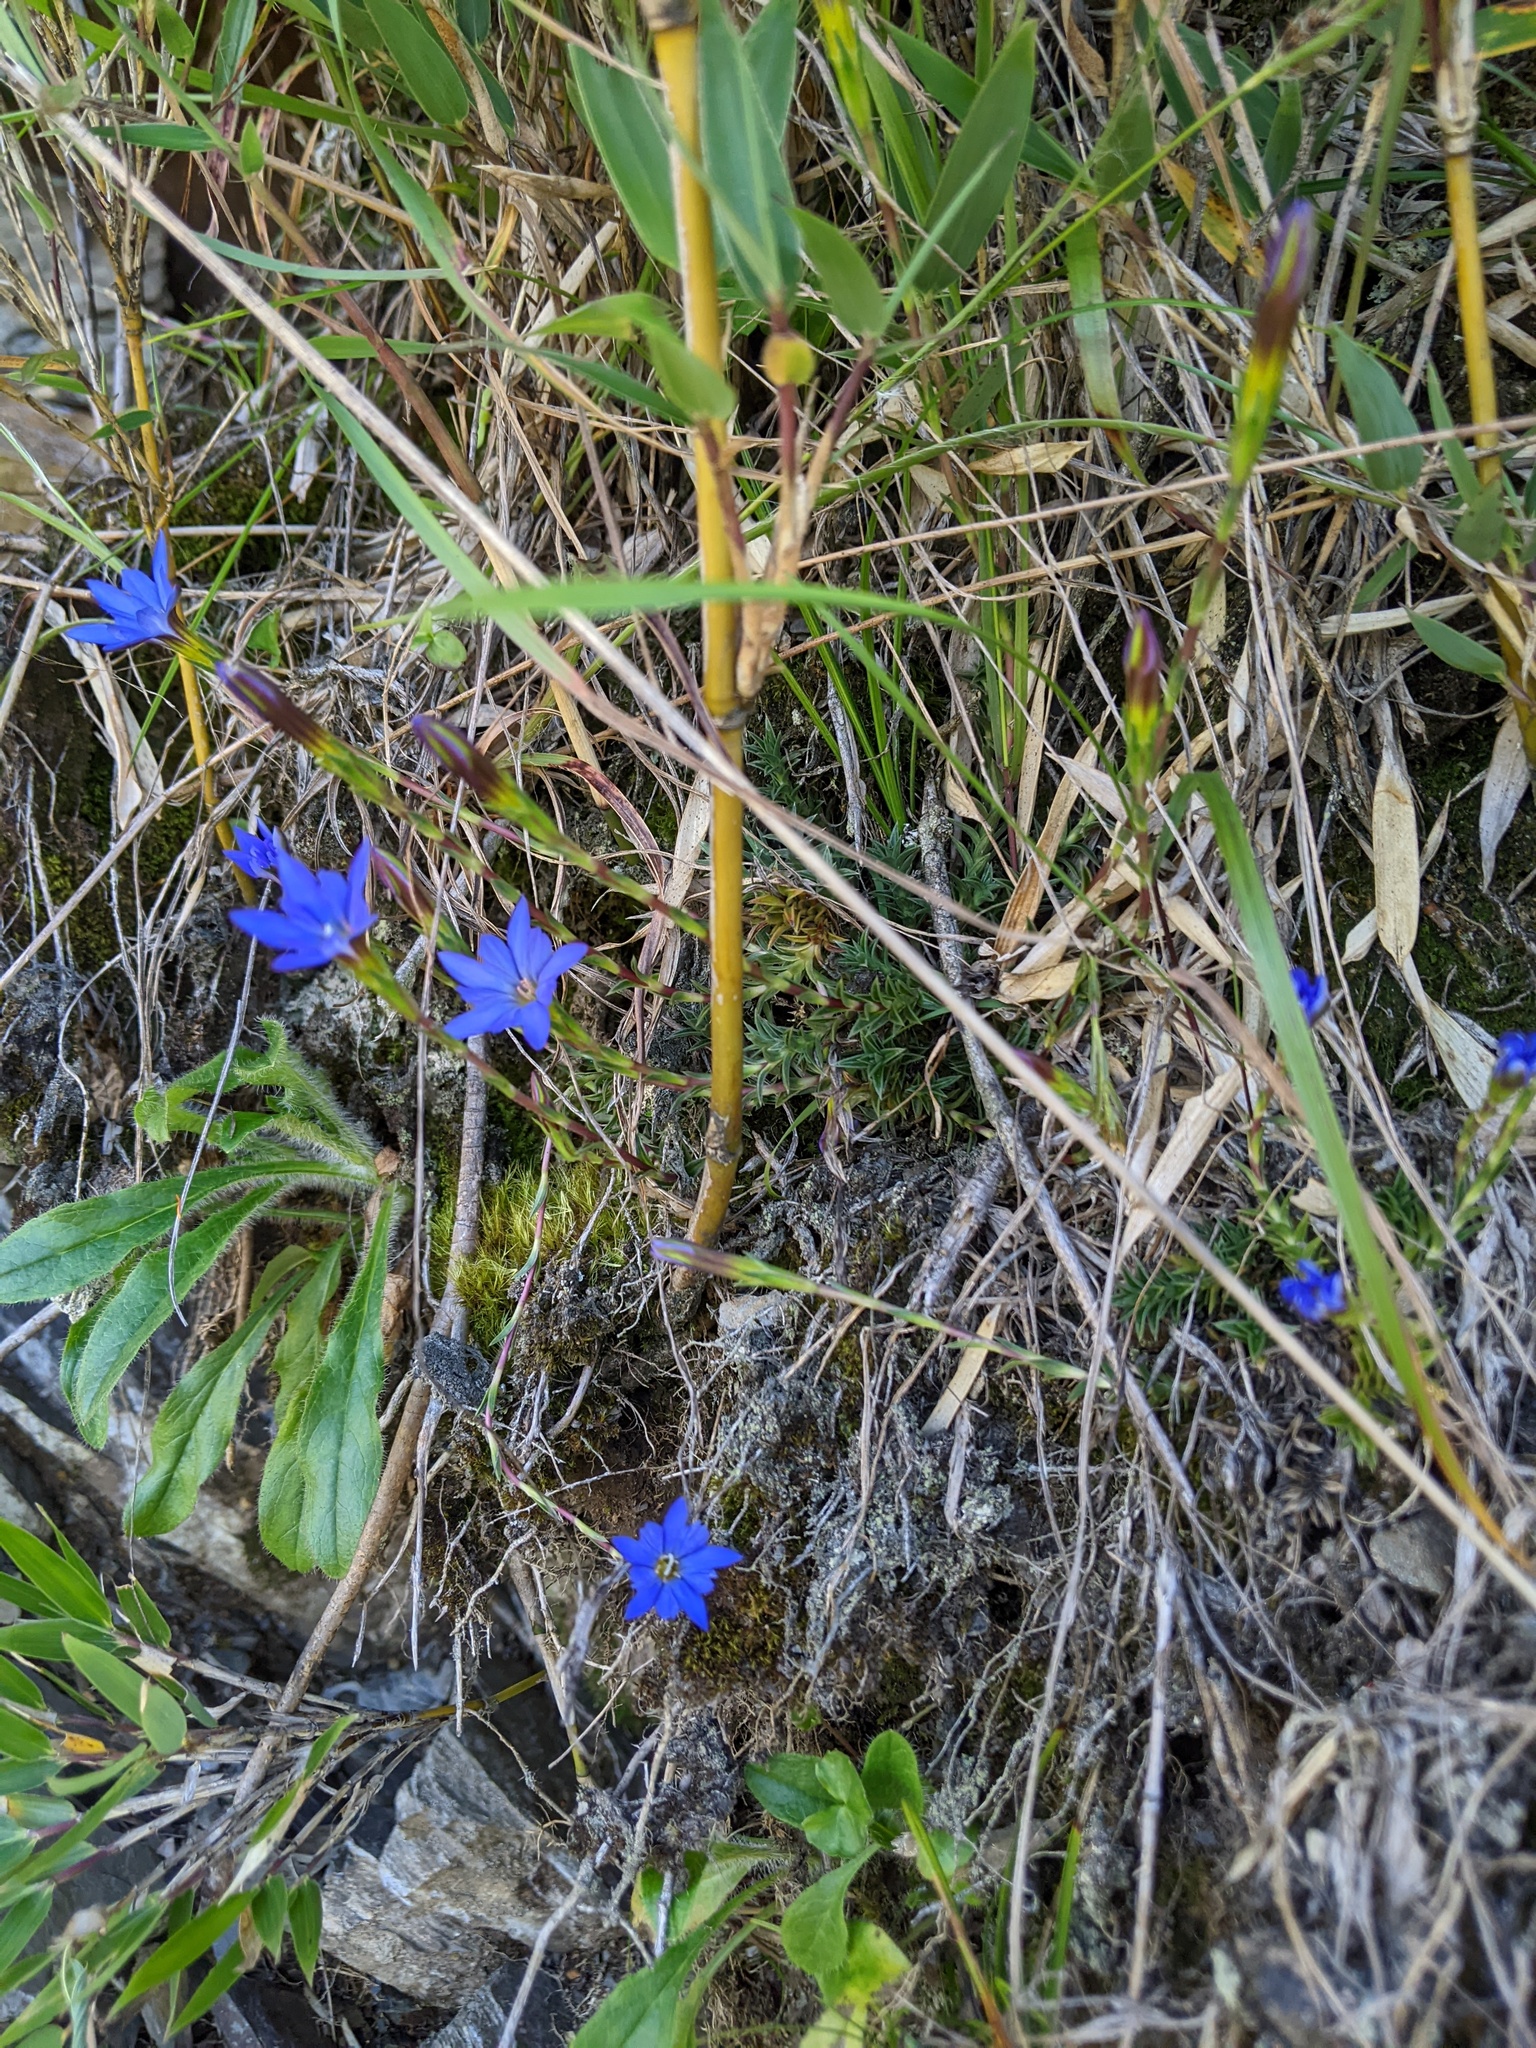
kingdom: Plantae
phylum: Tracheophyta
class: Magnoliopsida
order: Gentianales
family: Gentianaceae
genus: Gentiana
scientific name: Gentiana arisanensis
